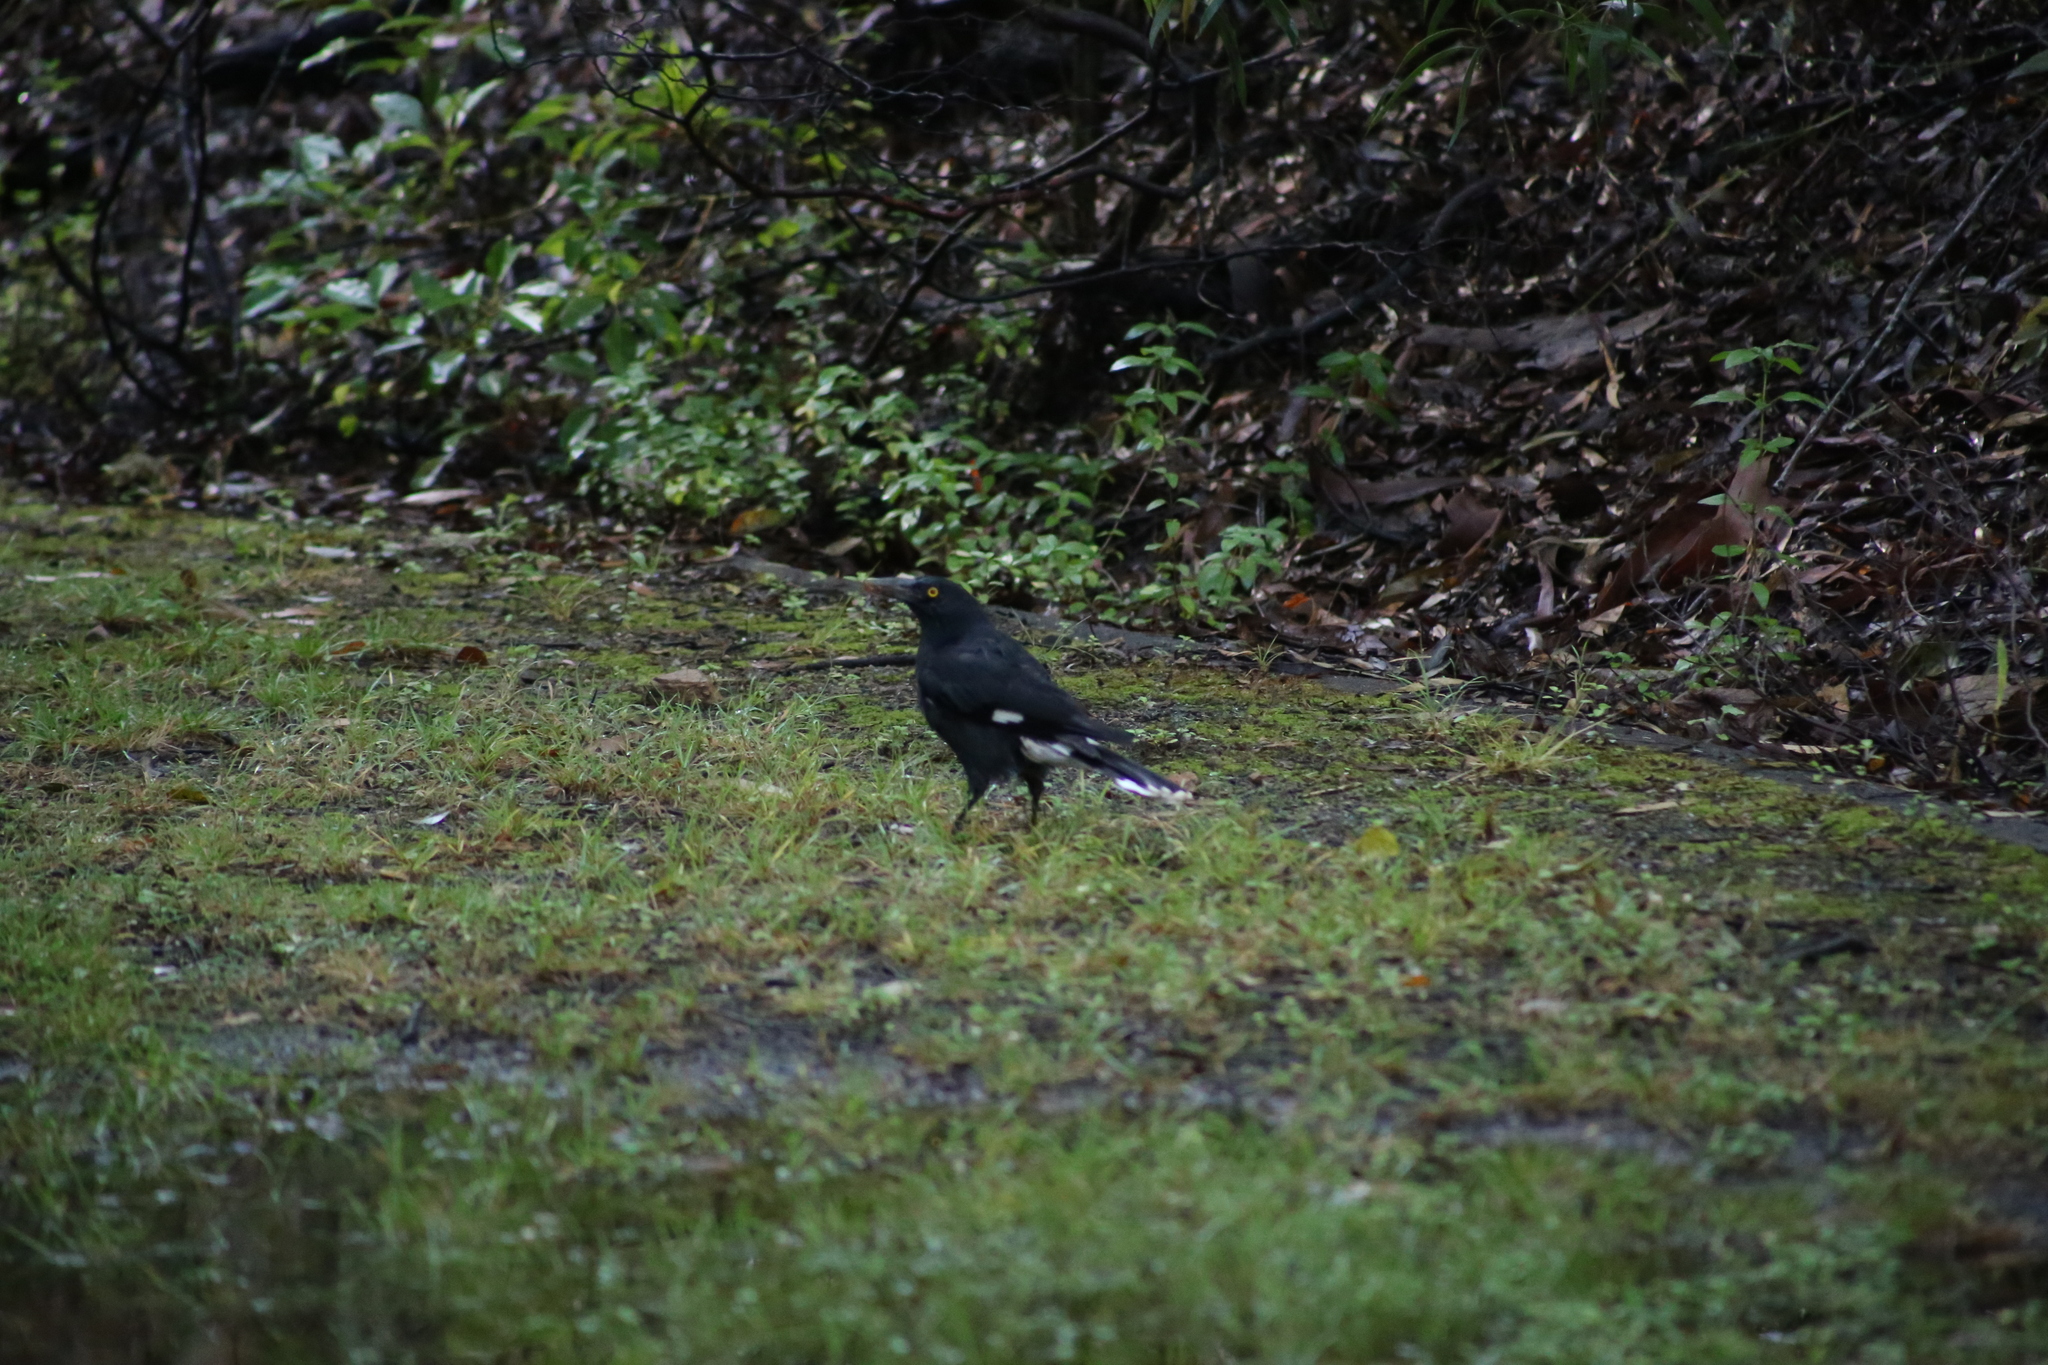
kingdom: Animalia
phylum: Chordata
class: Aves
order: Passeriformes
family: Cracticidae
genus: Strepera
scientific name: Strepera graculina
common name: Pied currawong
